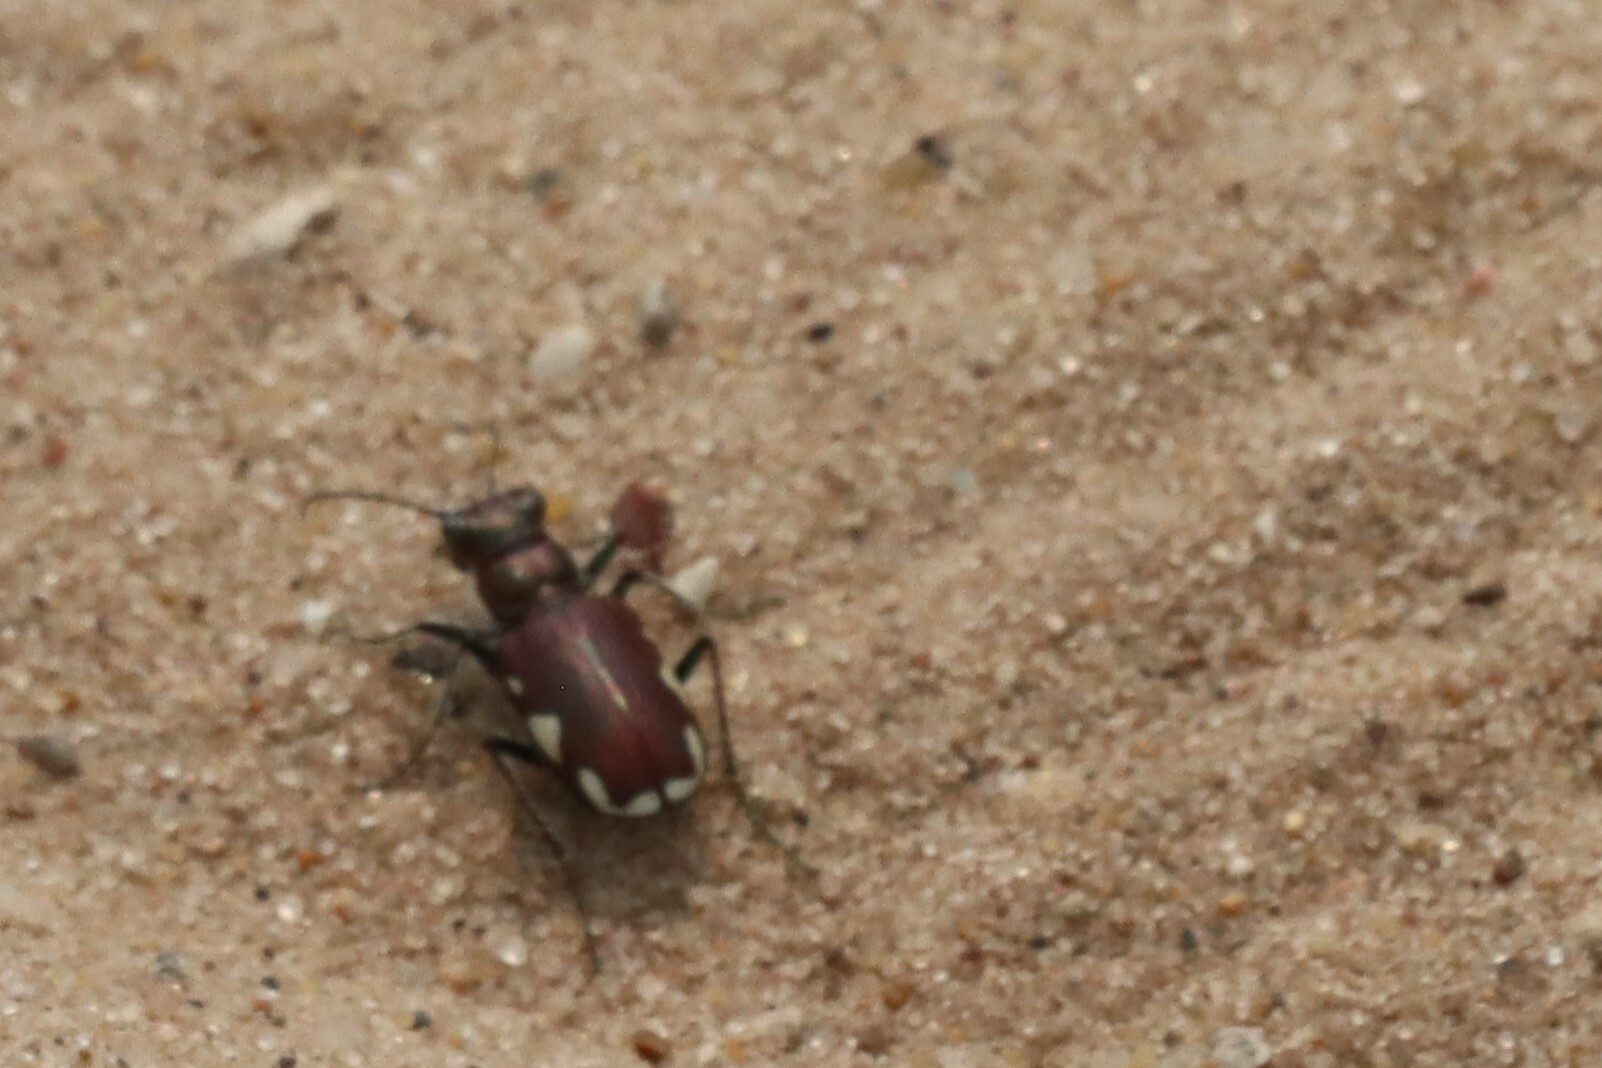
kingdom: Animalia
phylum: Arthropoda
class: Insecta
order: Coleoptera
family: Carabidae
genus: Cicindela
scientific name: Cicindela scutellaris
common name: Festive tiger beetle
